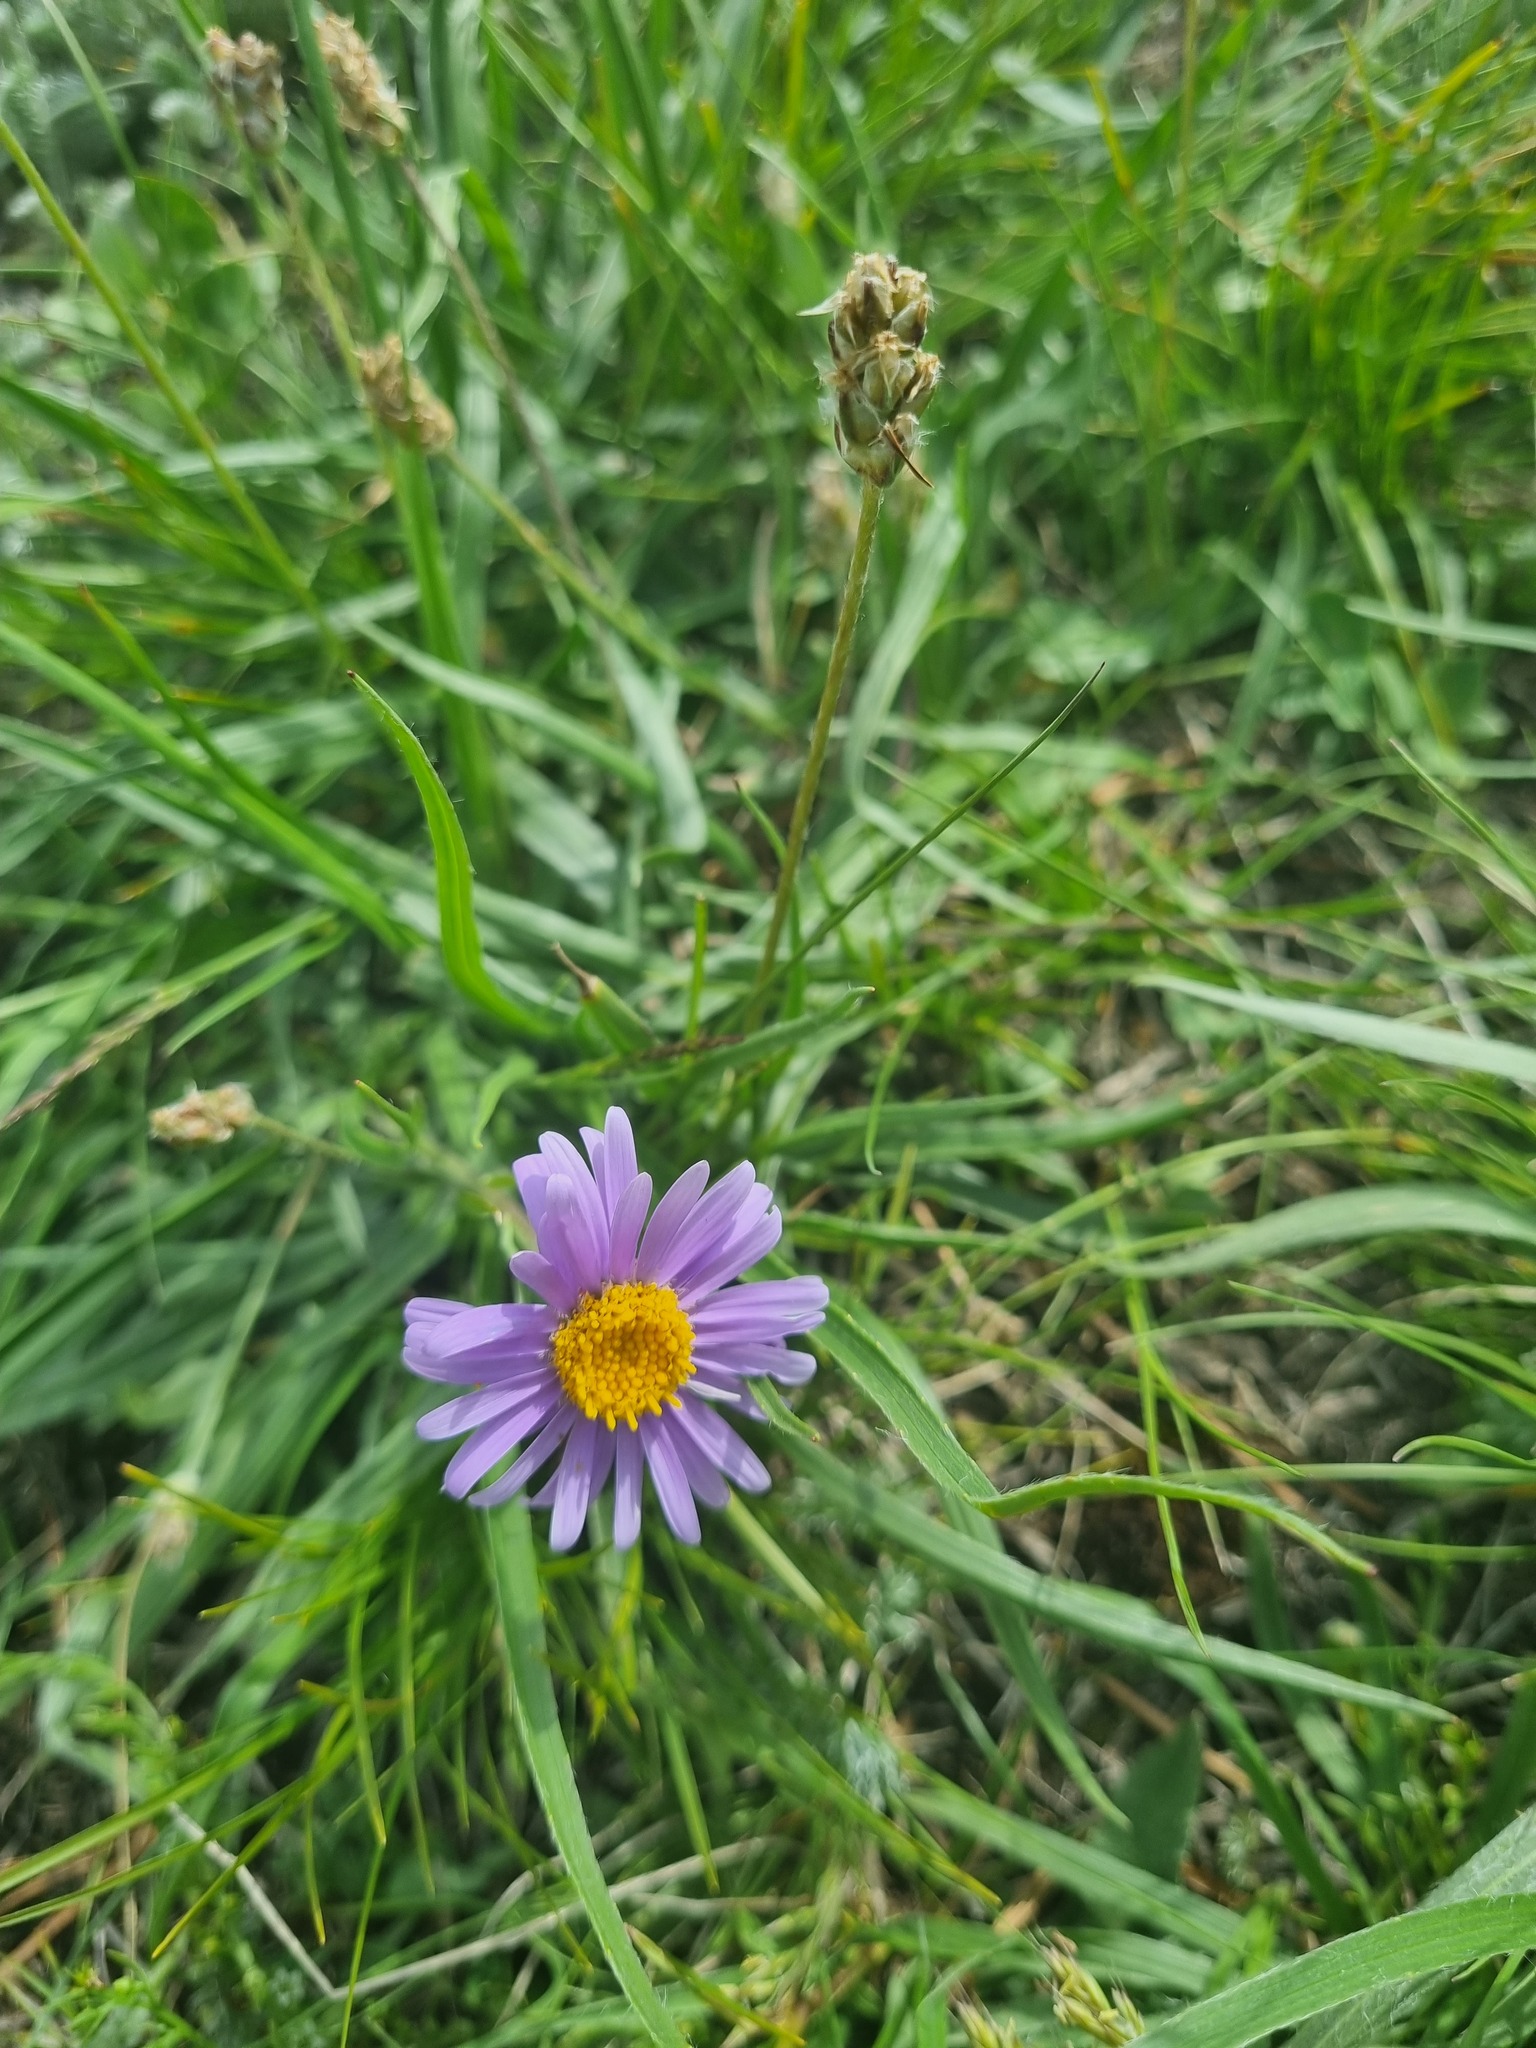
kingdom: Plantae
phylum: Tracheophyta
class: Magnoliopsida
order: Asterales
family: Asteraceae
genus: Aster
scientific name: Aster alpinus
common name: Alpine aster
